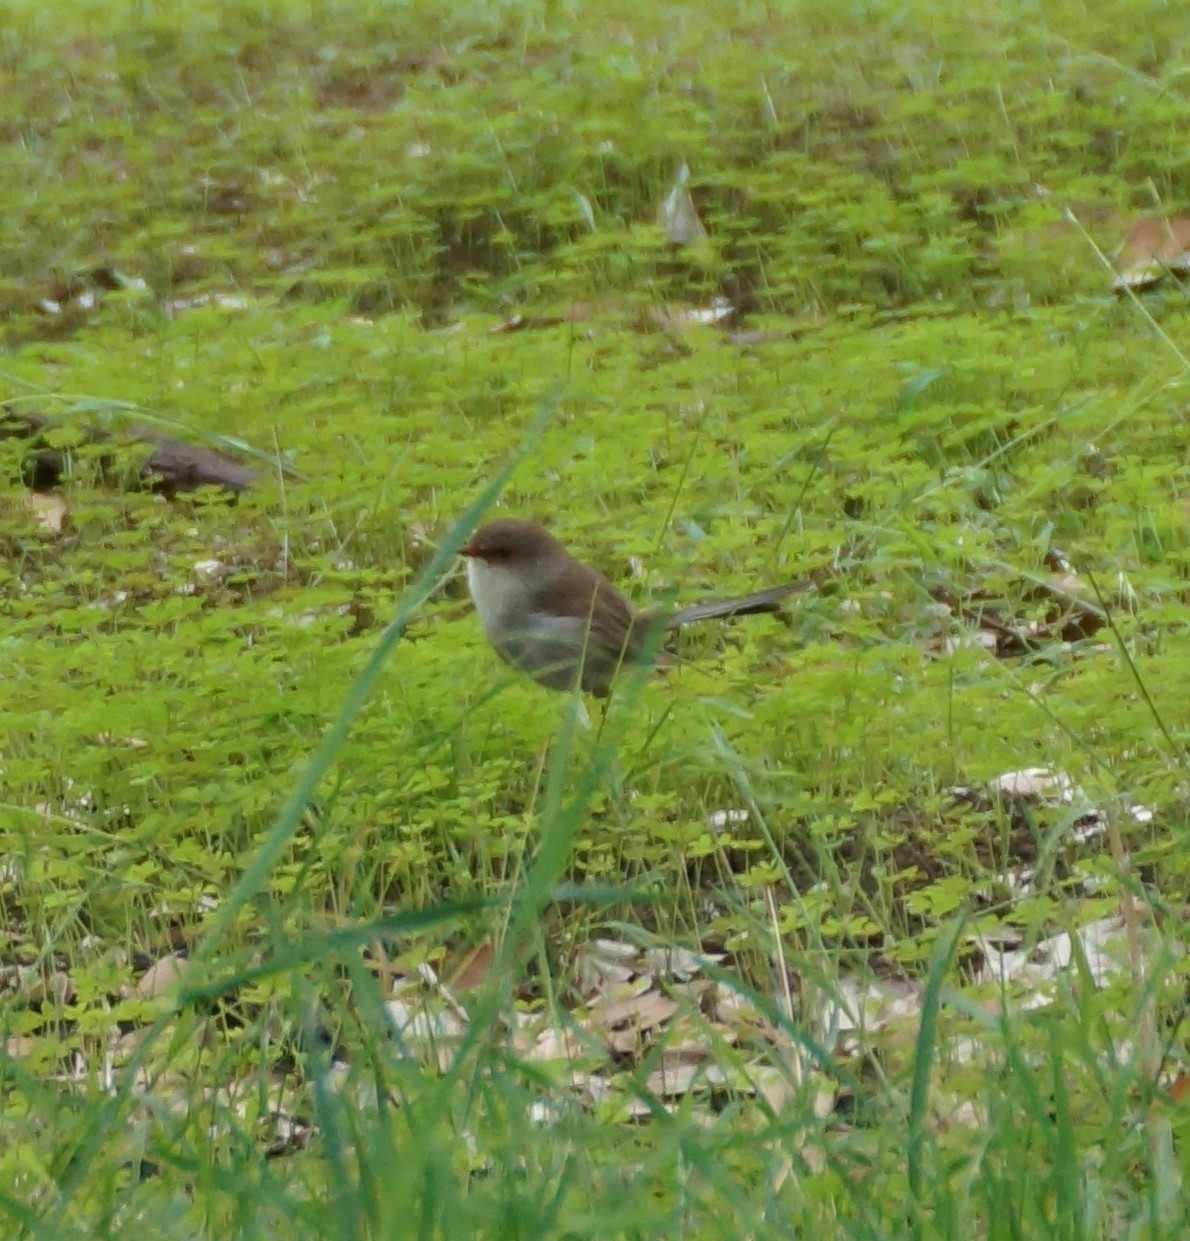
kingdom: Animalia
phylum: Chordata
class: Aves
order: Passeriformes
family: Maluridae
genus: Malurus
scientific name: Malurus cyaneus
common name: Superb fairywren
